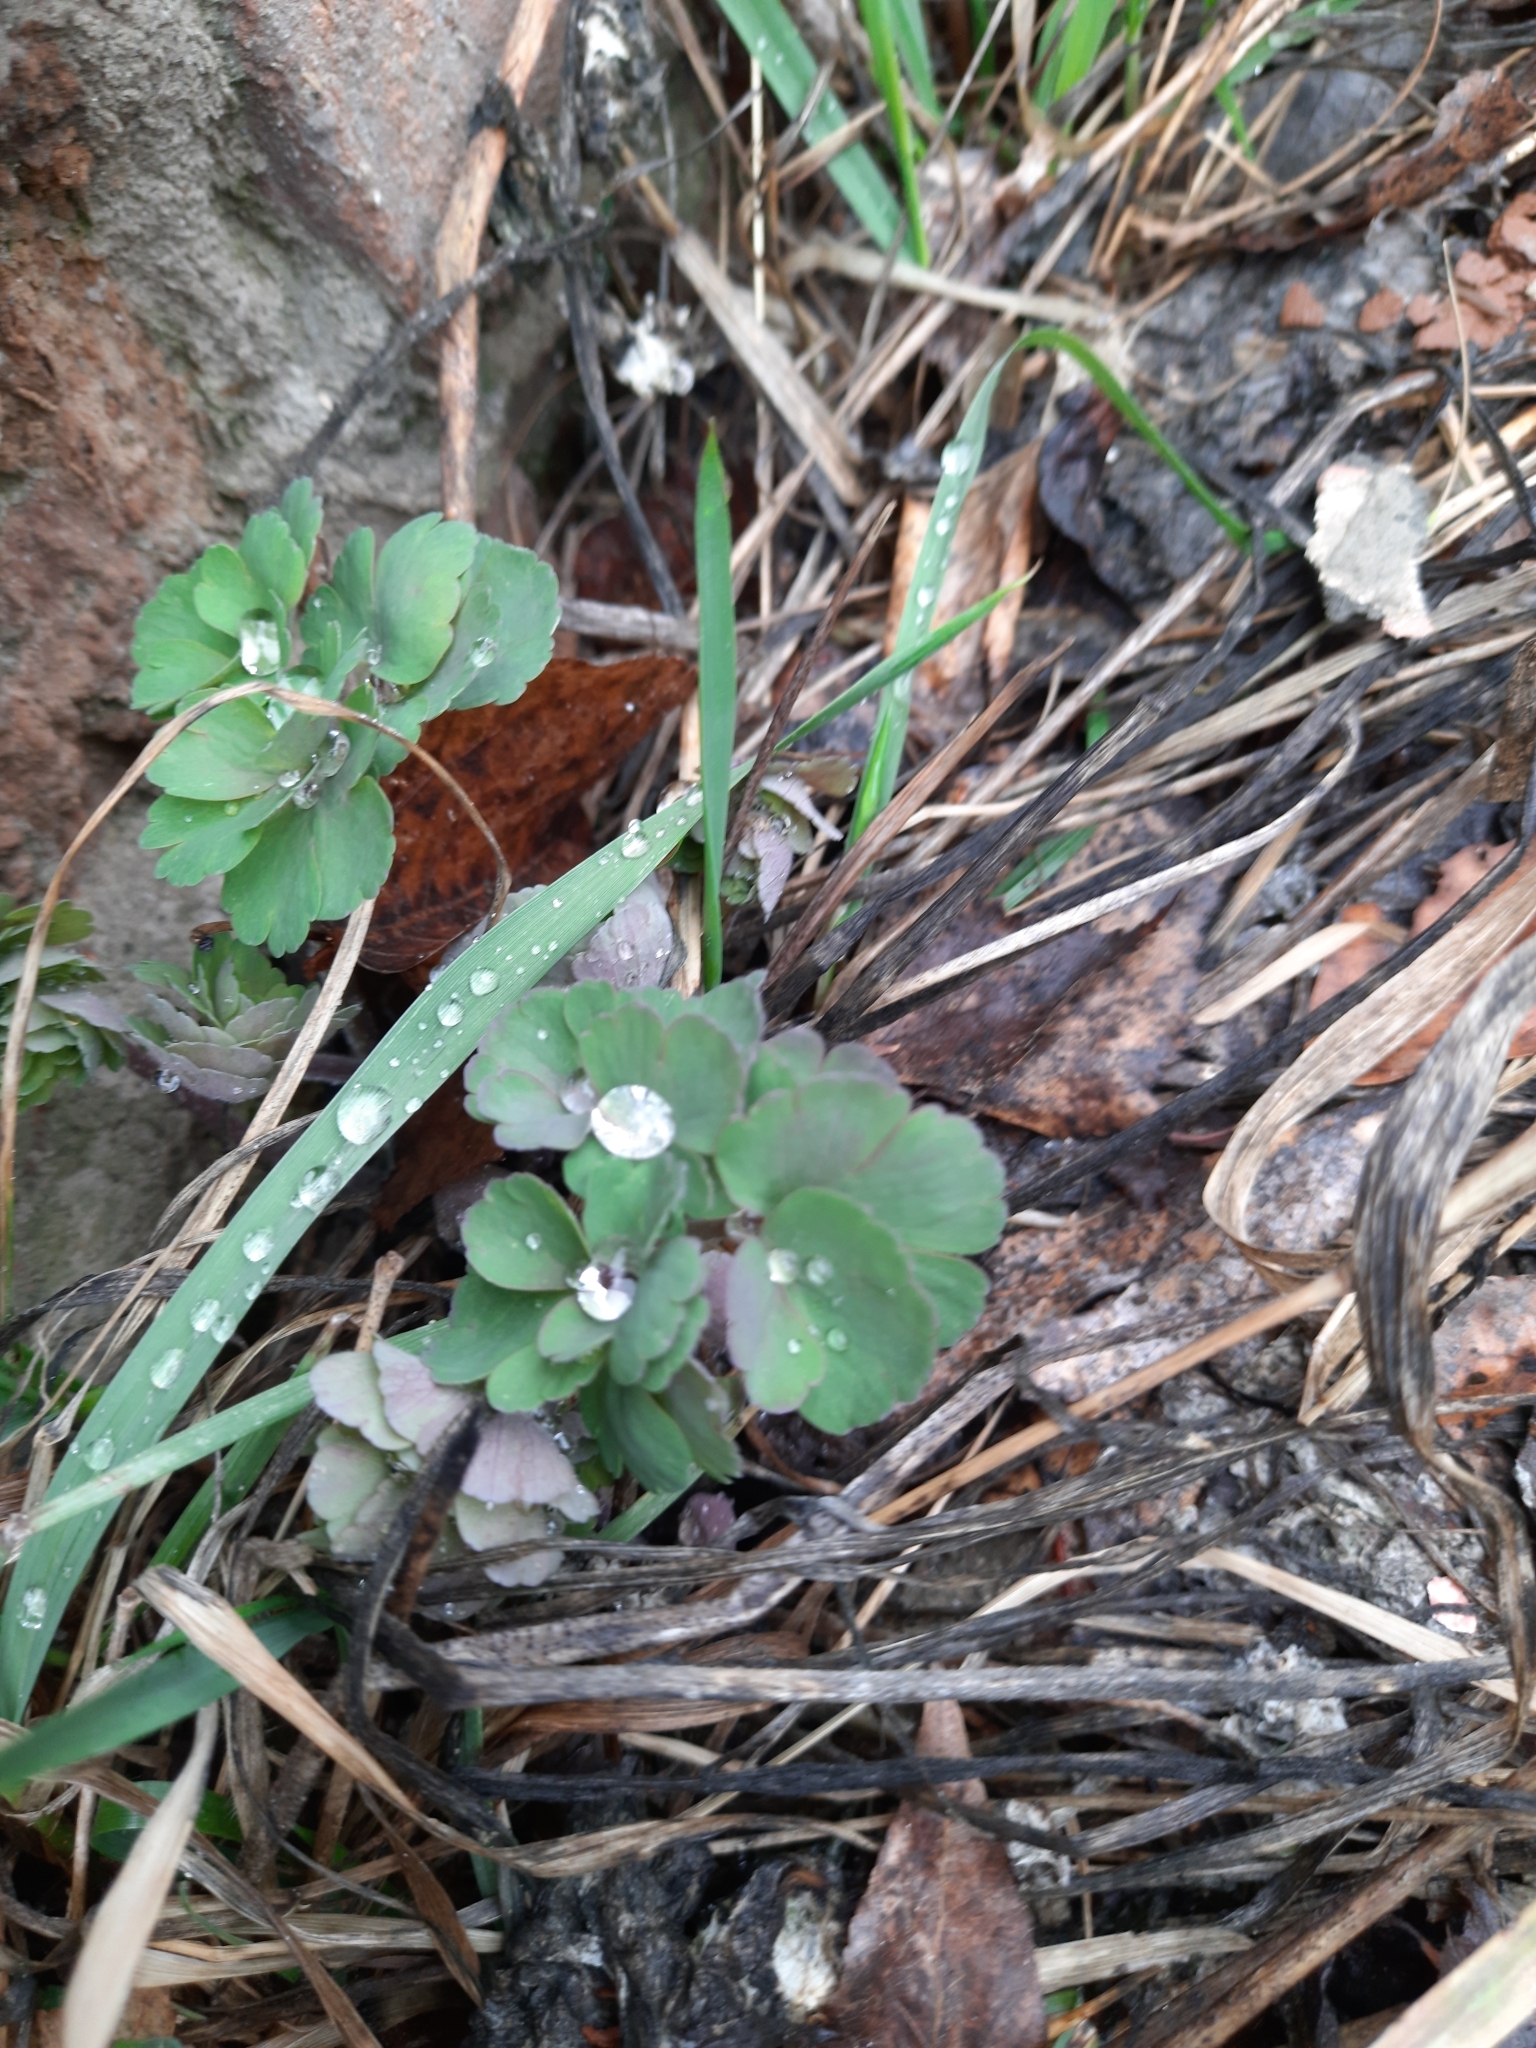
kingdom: Plantae
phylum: Tracheophyta
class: Magnoliopsida
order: Ranunculales
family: Ranunculaceae
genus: Aquilegia
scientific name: Aquilegia vulgaris
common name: Columbine
